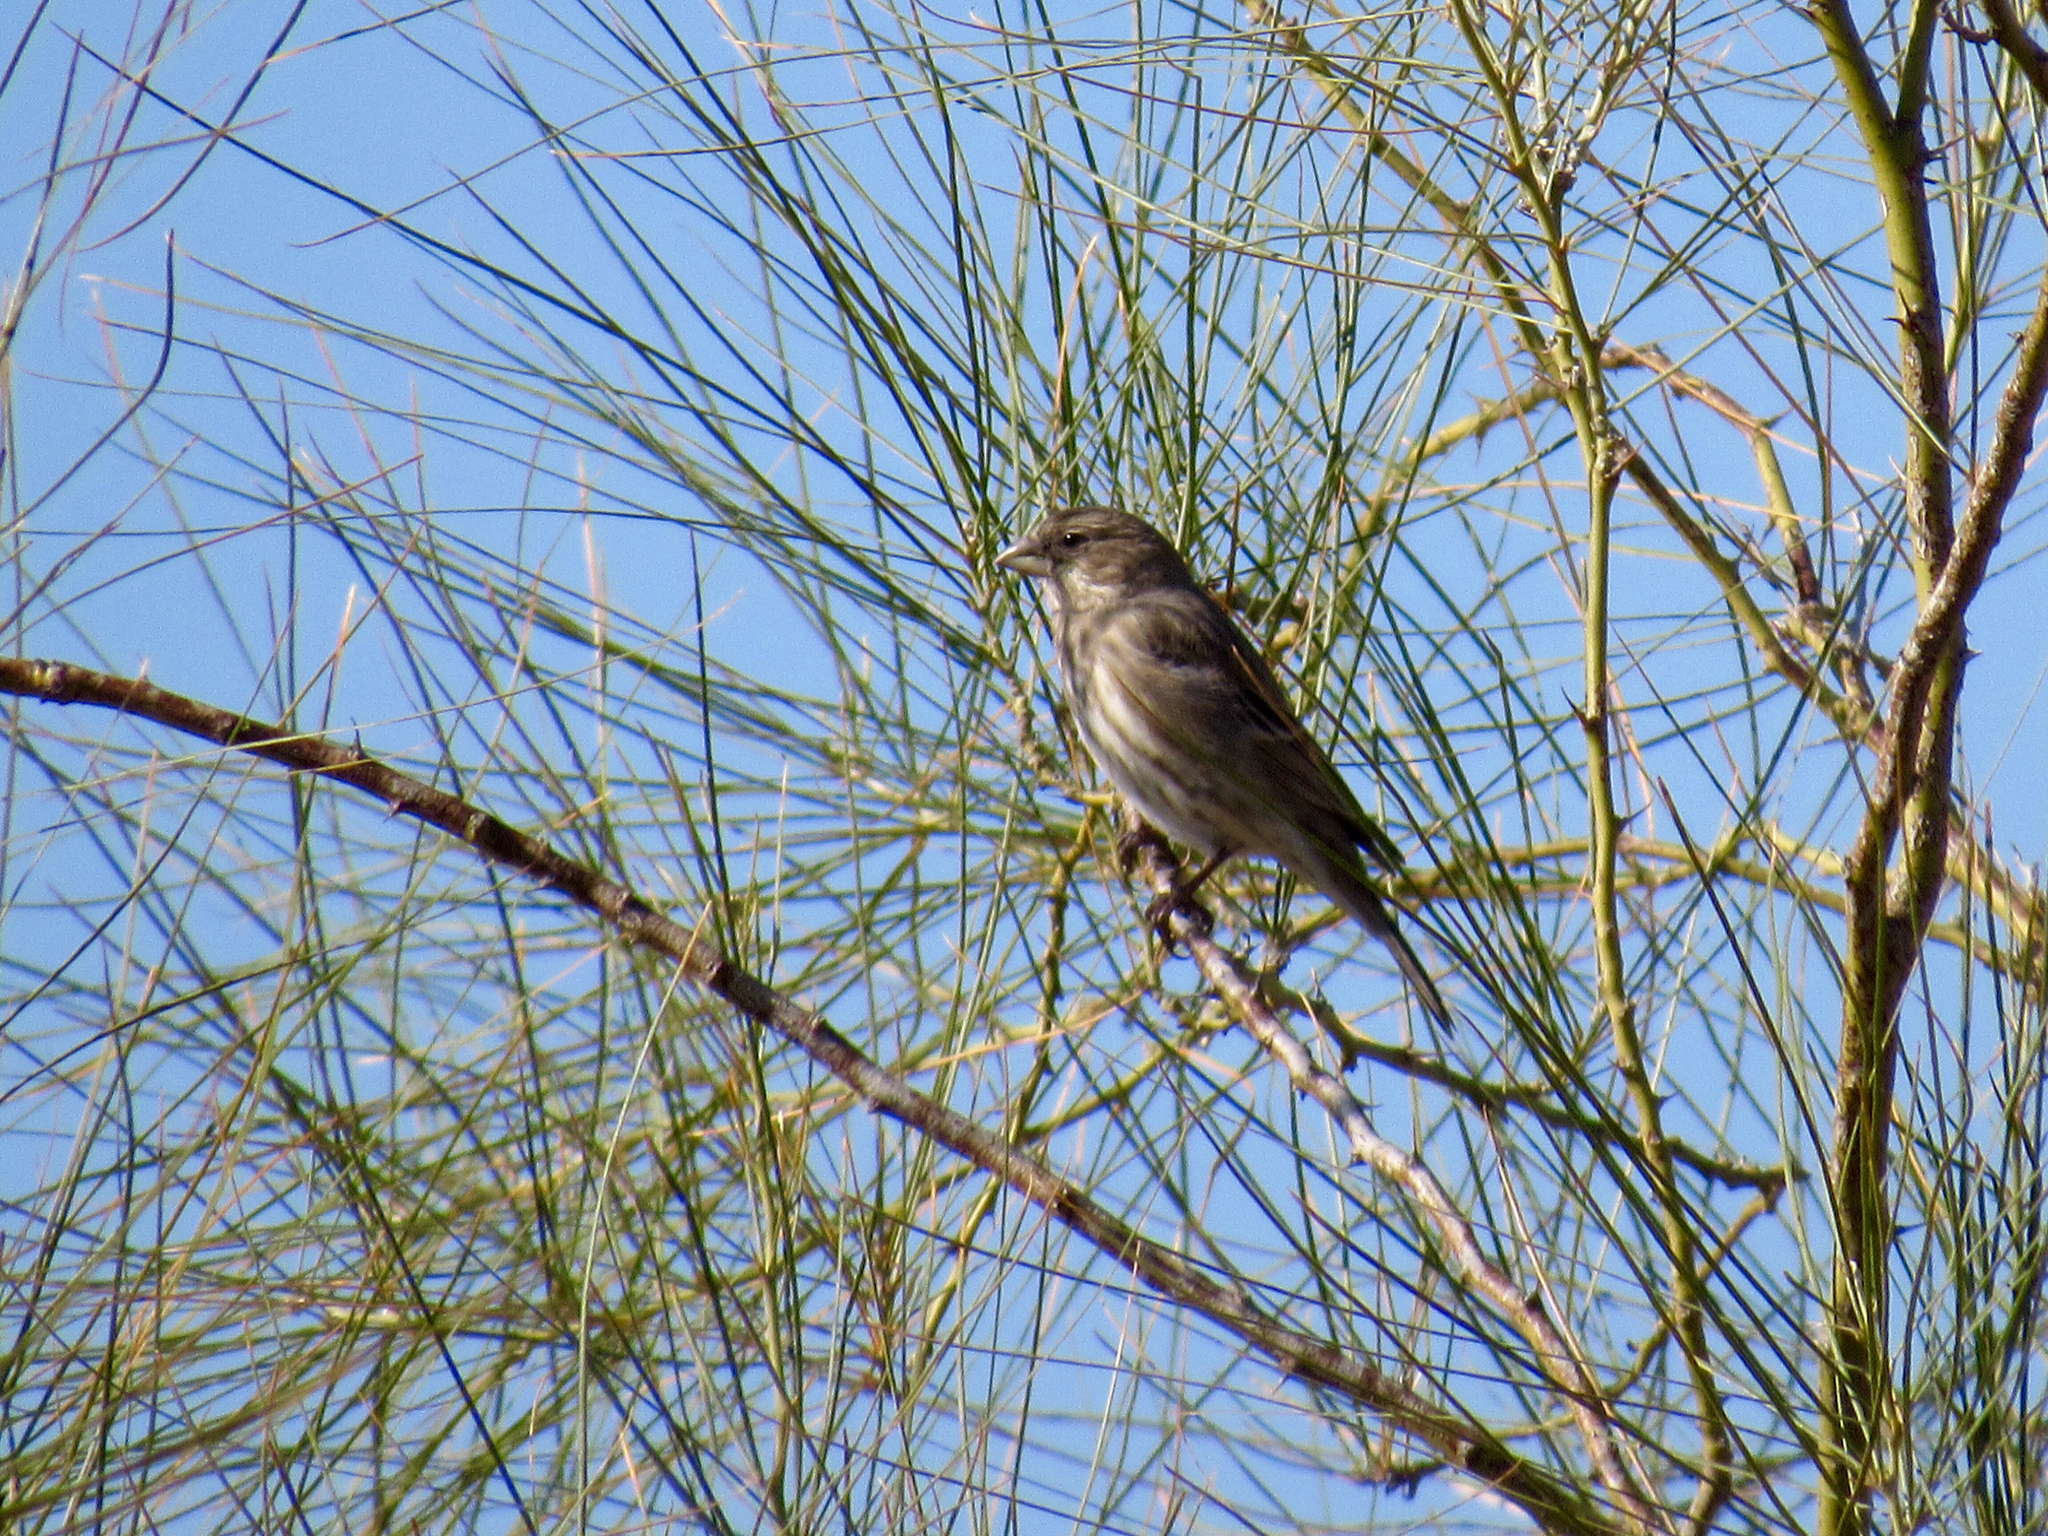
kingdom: Animalia
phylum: Chordata
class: Aves
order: Passeriformes
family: Fringillidae
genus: Haemorhous
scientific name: Haemorhous mexicanus
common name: House finch
